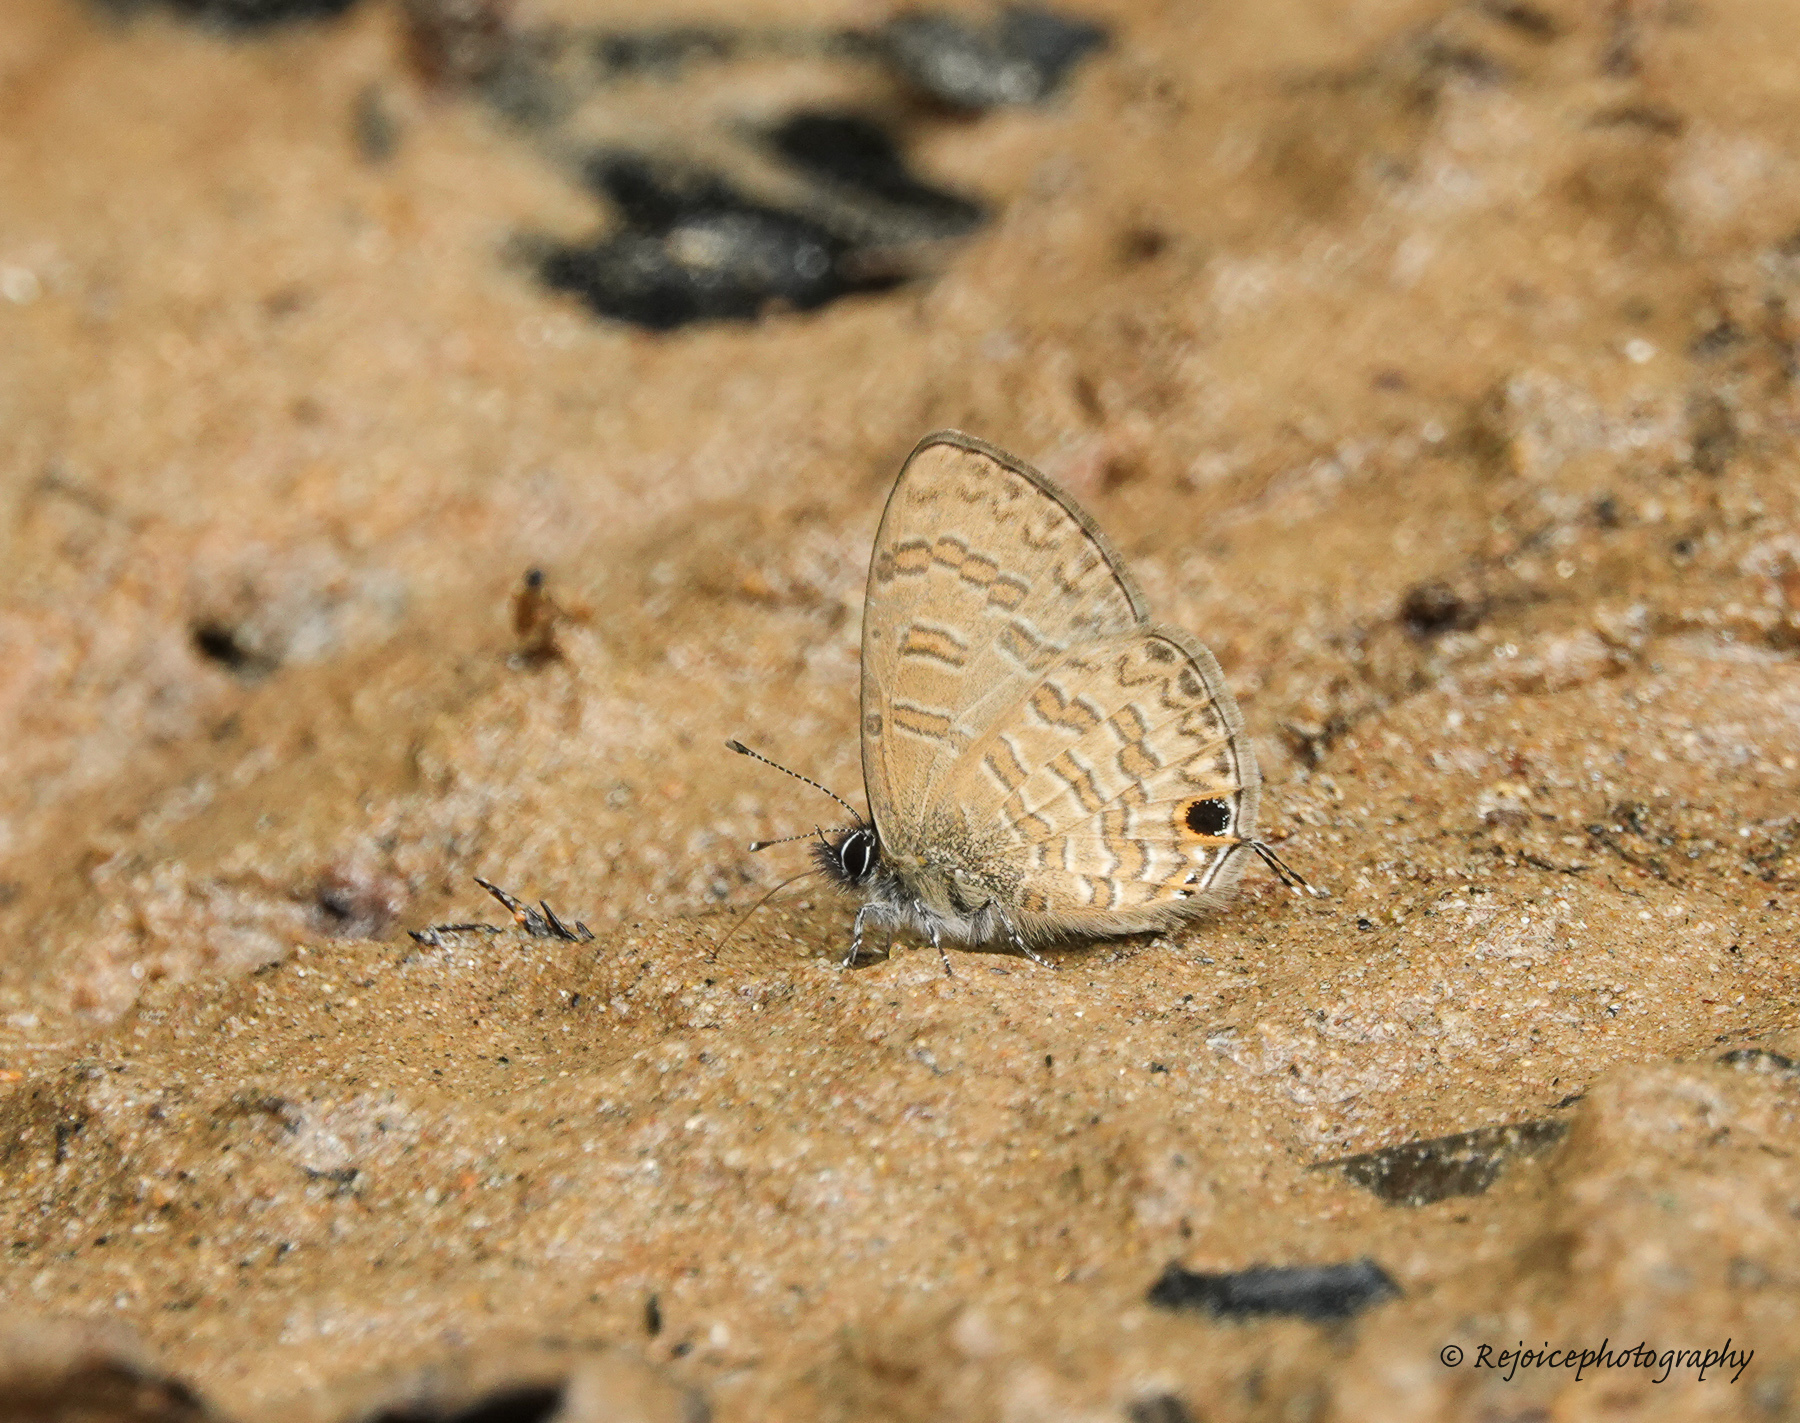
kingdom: Animalia
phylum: Arthropoda
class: Insecta
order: Lepidoptera
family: Lycaenidae
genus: Prosotas
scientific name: Prosotas nora
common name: Common line blue
